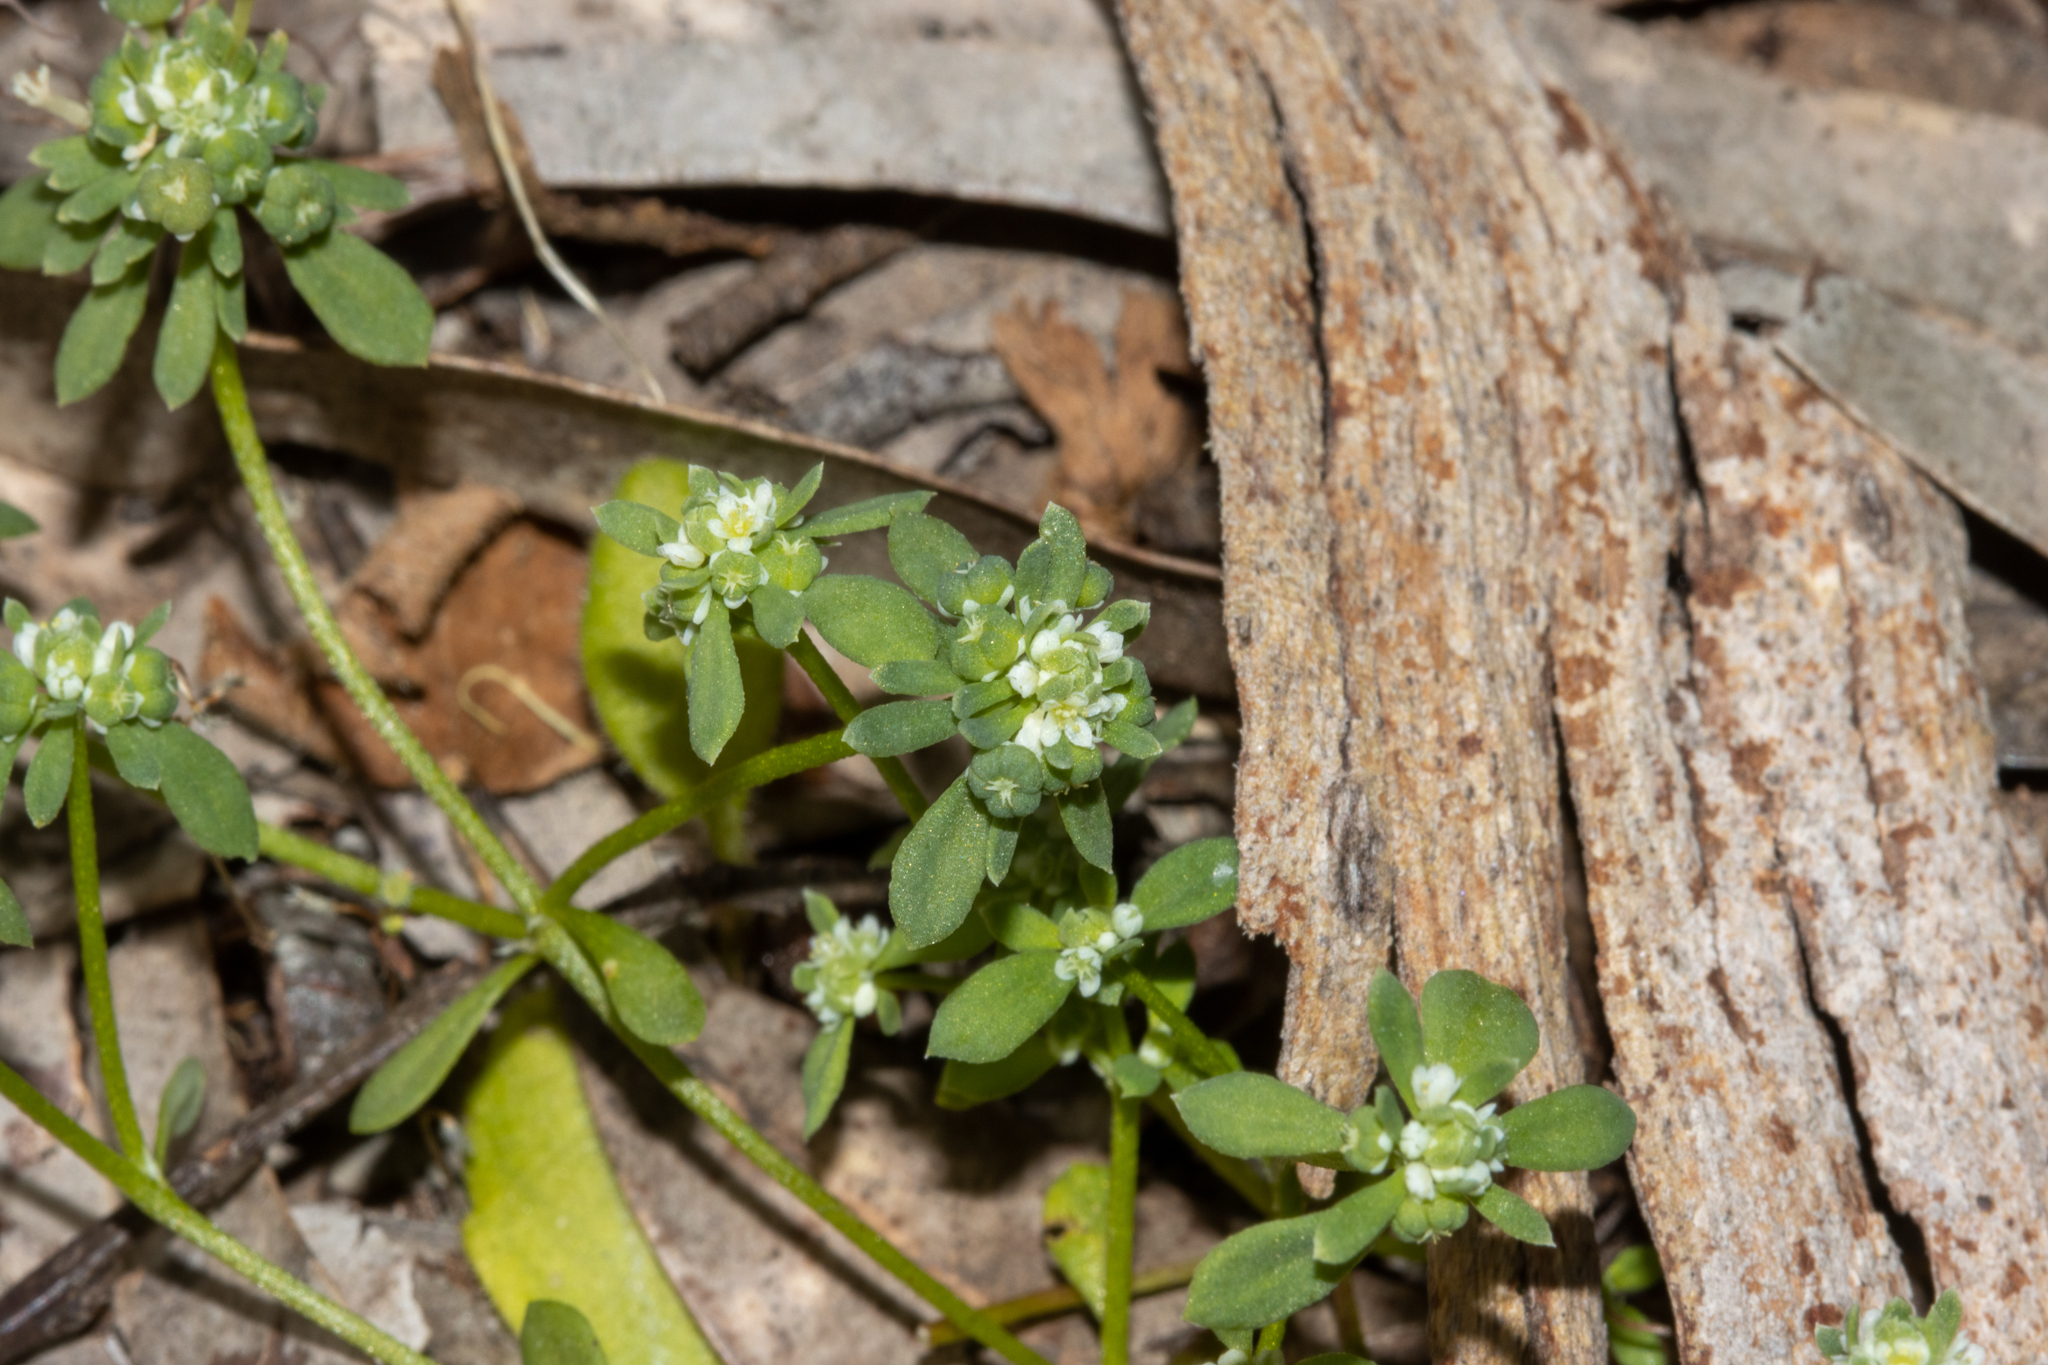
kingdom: Plantae
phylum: Tracheophyta
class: Magnoliopsida
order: Malpighiales
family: Phyllanthaceae
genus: Poranthera
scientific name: Poranthera microphylla
